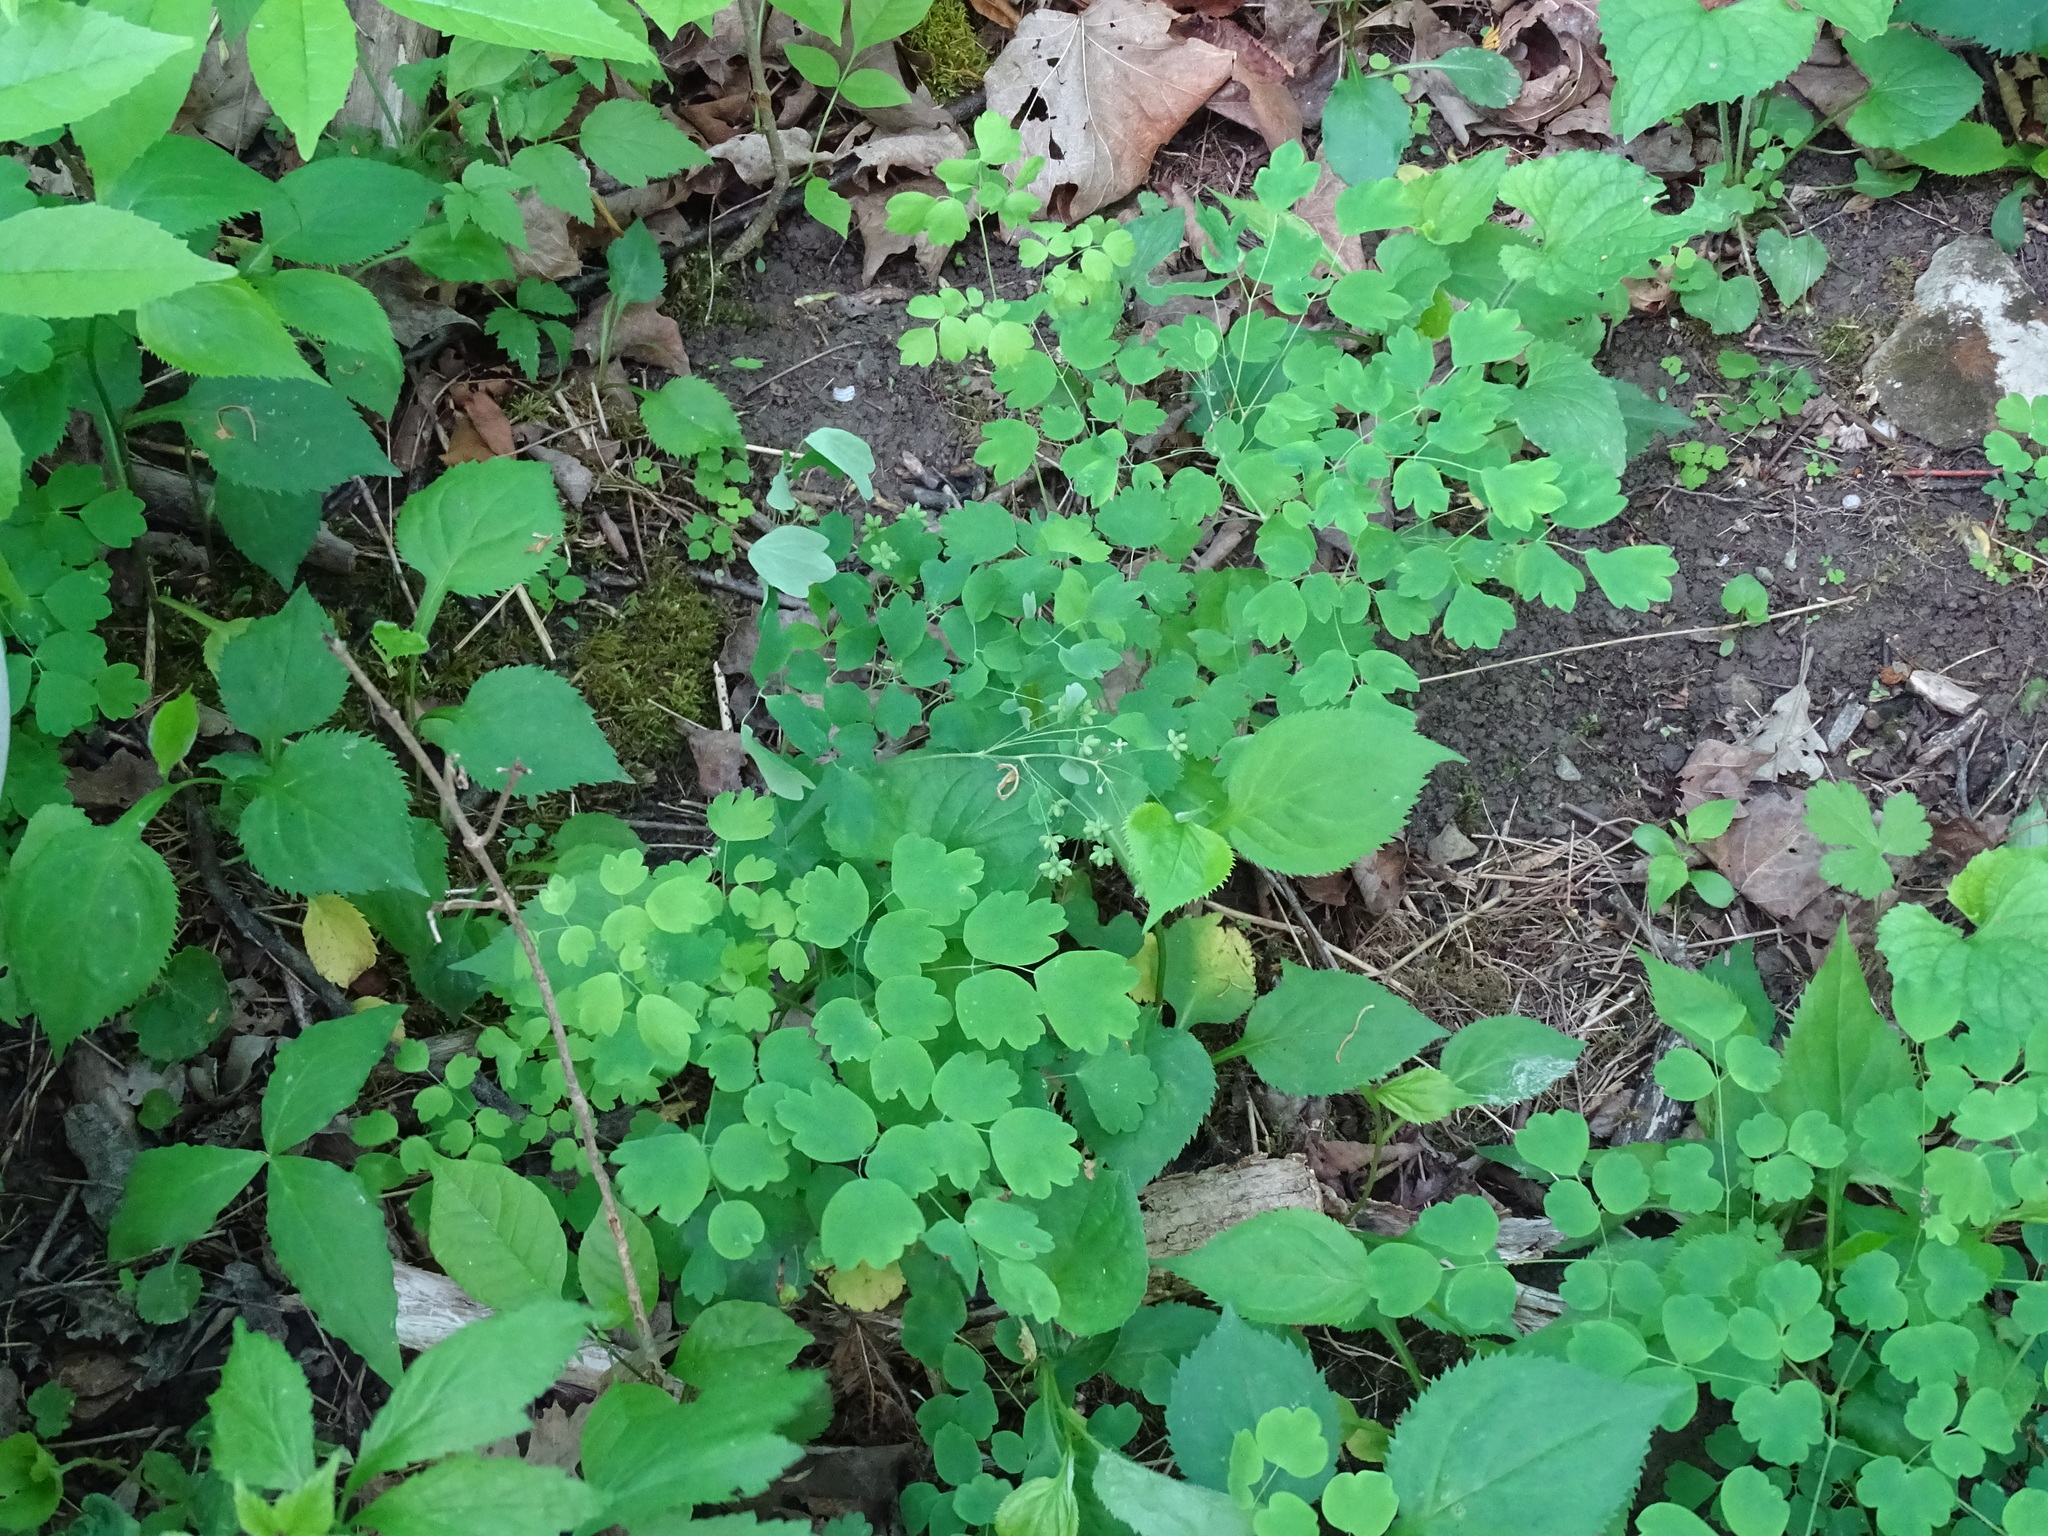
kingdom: Plantae
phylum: Tracheophyta
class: Magnoliopsida
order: Ranunculales
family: Ranunculaceae
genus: Thalictrum
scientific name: Thalictrum dioicum
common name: Early meadow-rue
